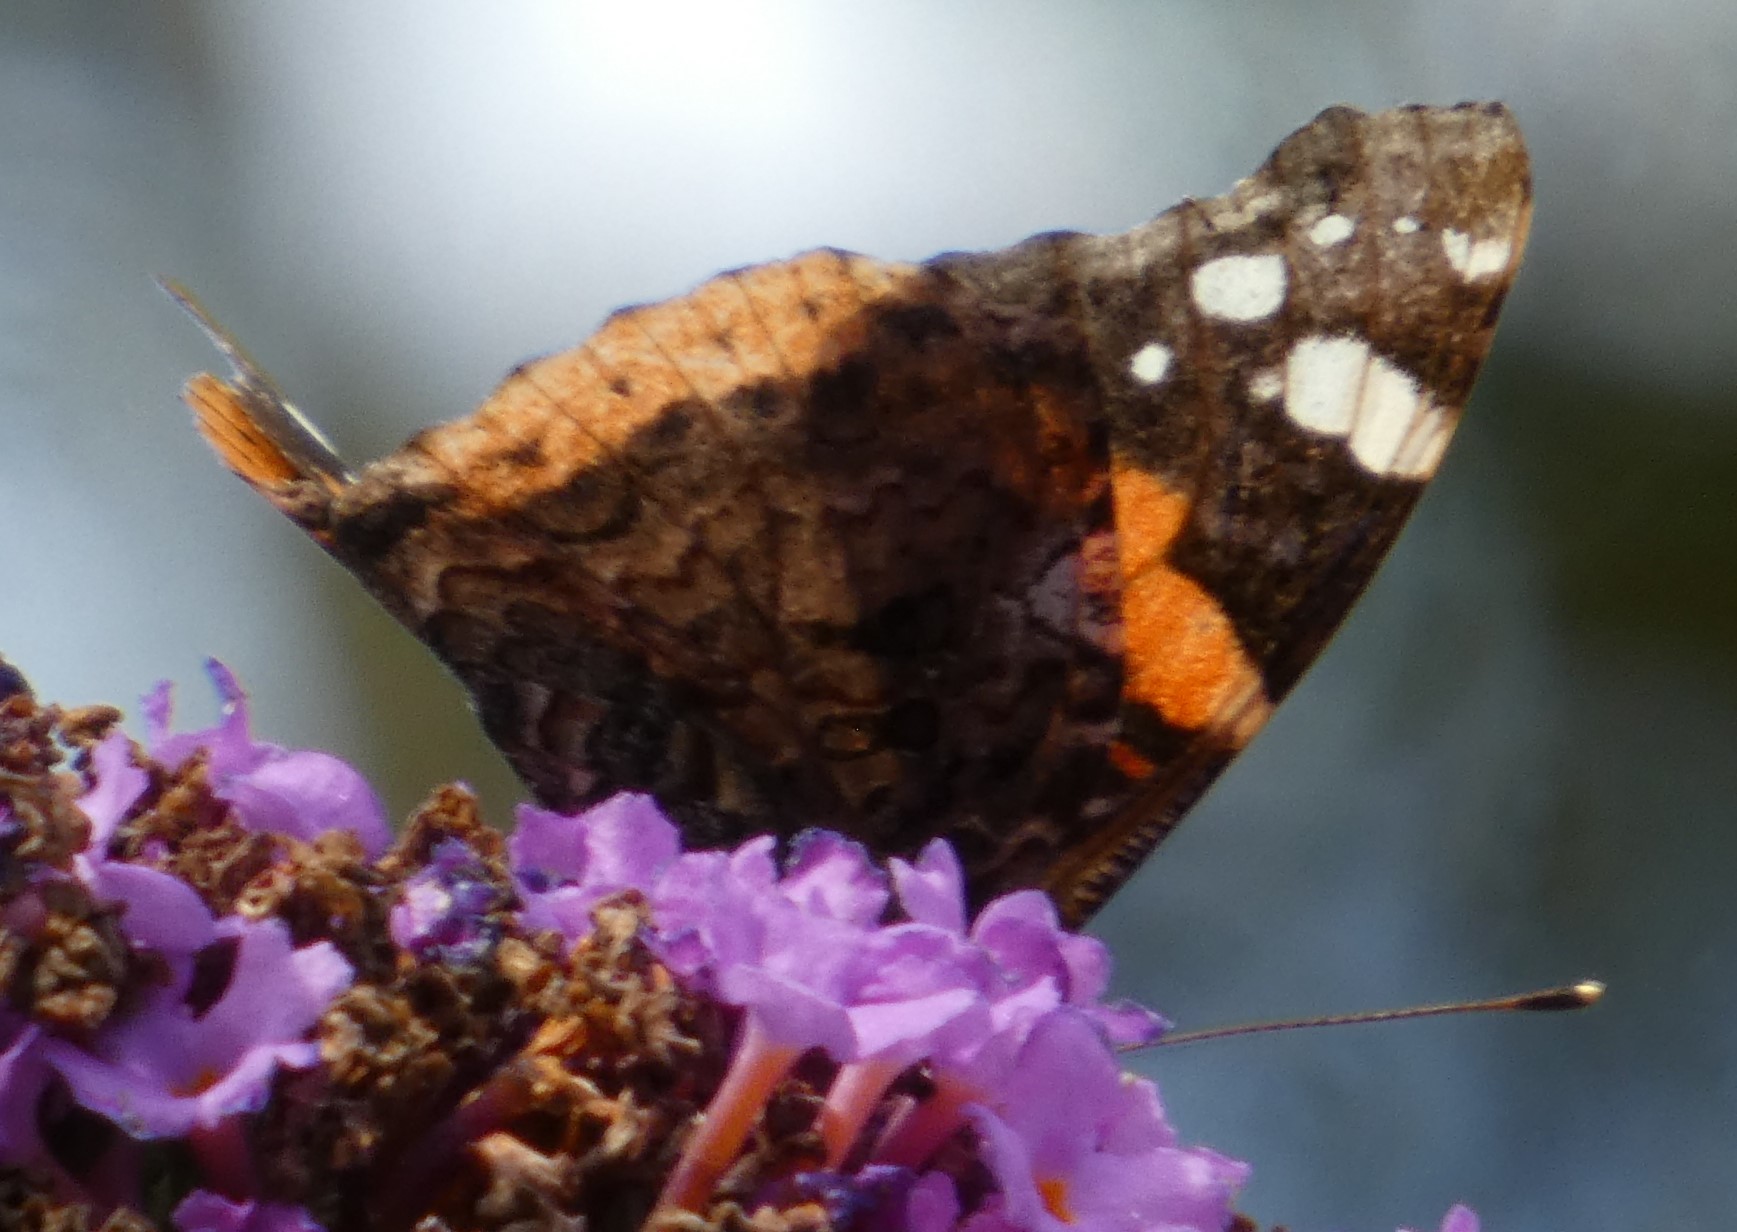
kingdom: Animalia
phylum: Arthropoda
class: Insecta
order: Lepidoptera
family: Nymphalidae
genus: Vanessa
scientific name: Vanessa atalanta
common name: Red admiral
